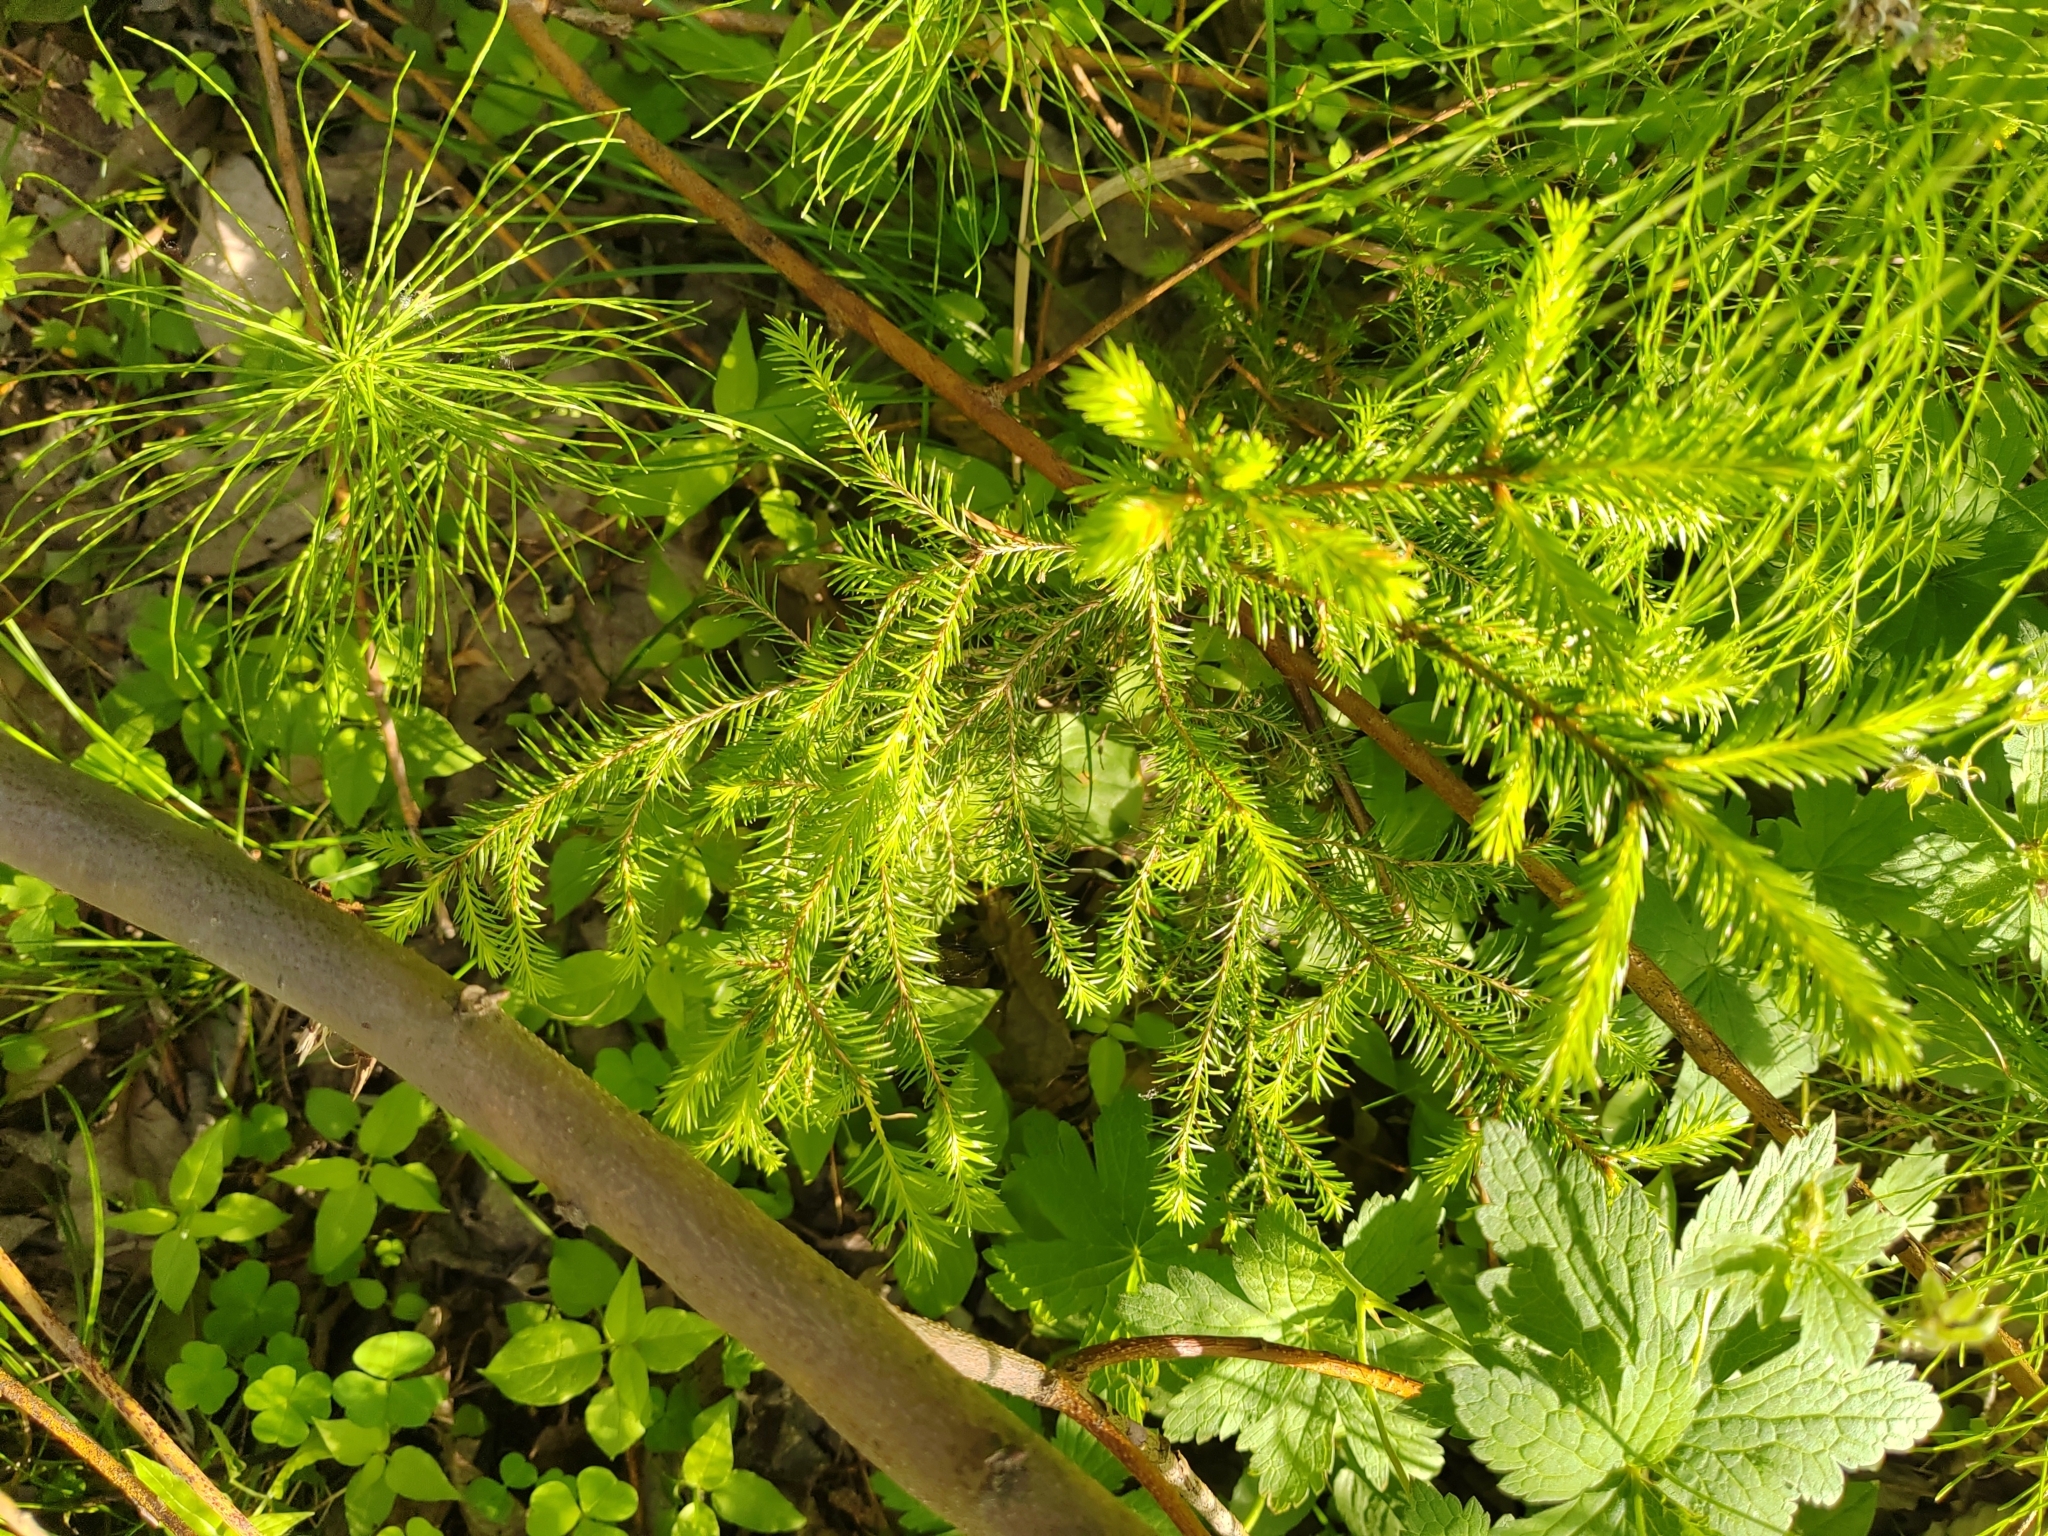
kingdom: Plantae
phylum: Tracheophyta
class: Pinopsida
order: Pinales
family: Pinaceae
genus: Picea
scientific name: Picea obovata
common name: Siberian spruce
